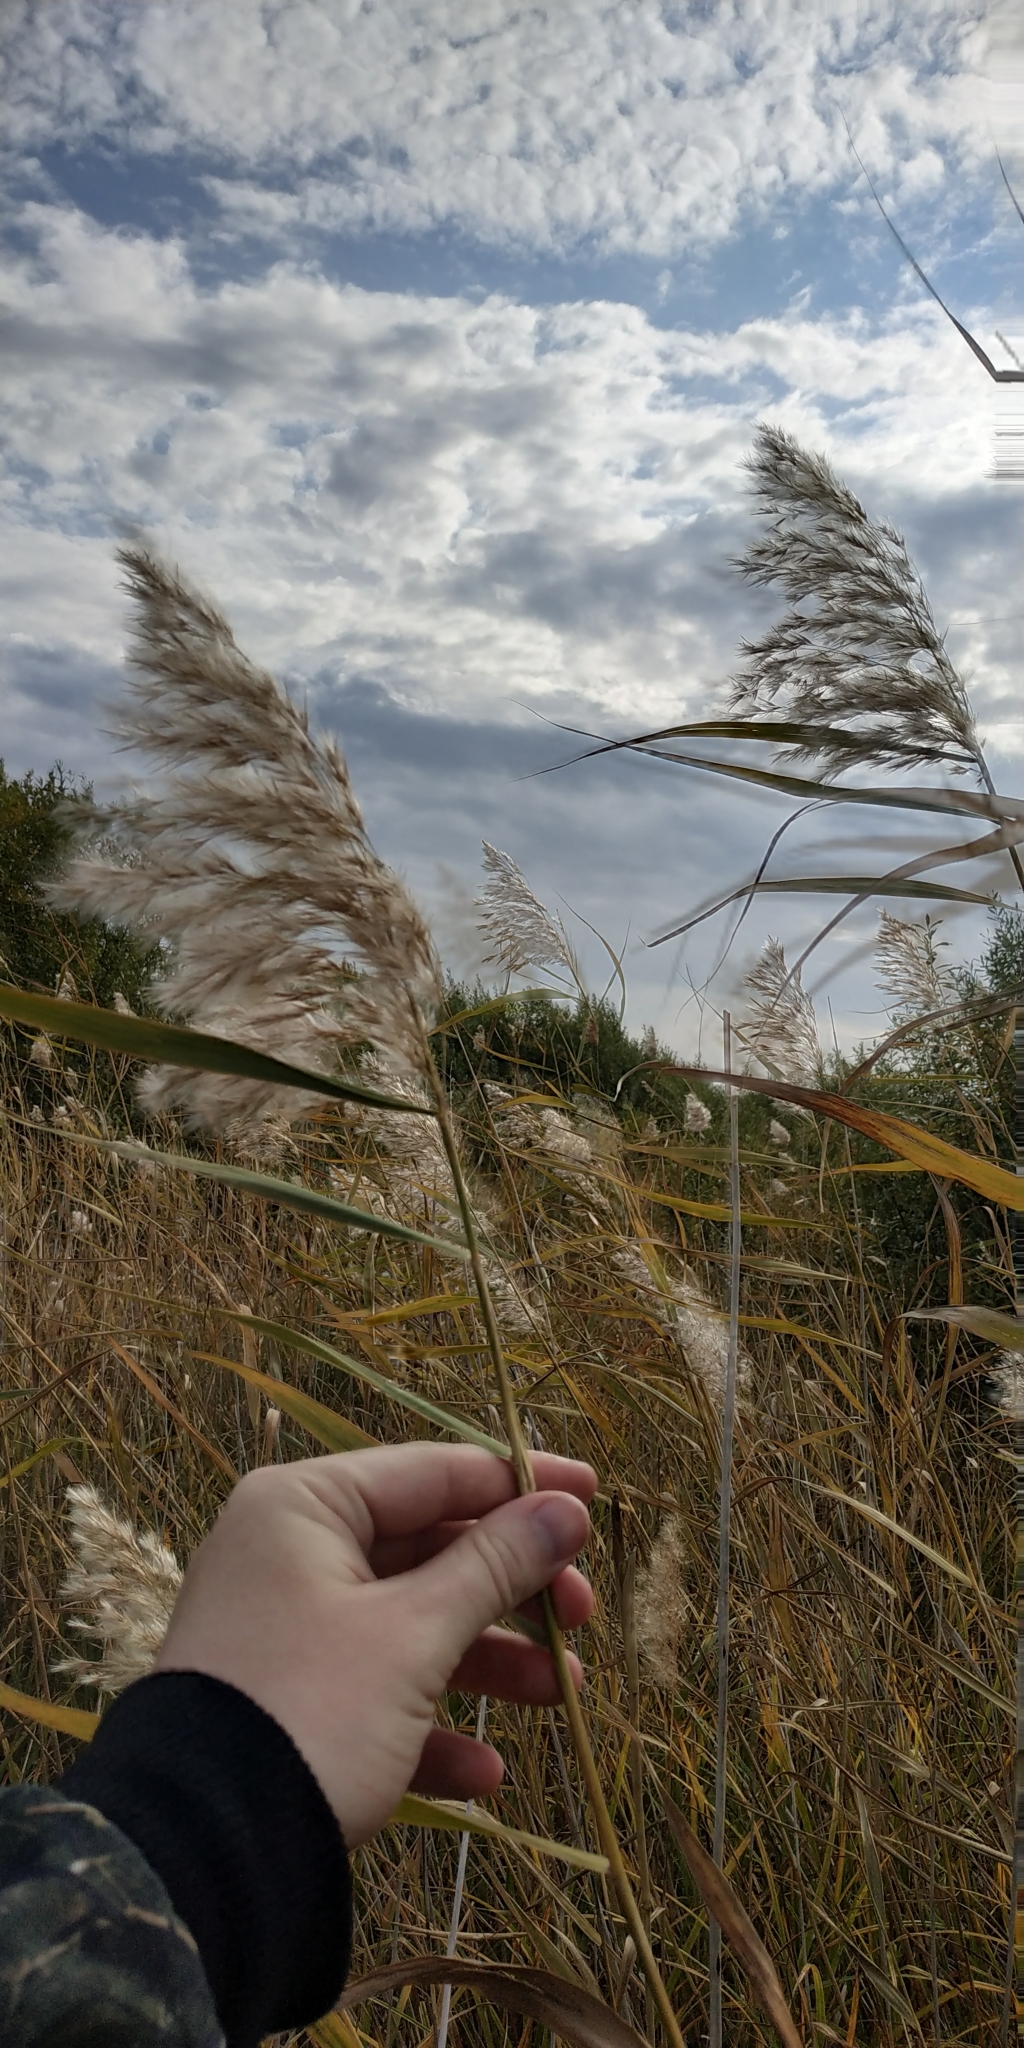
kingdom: Plantae
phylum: Tracheophyta
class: Liliopsida
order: Poales
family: Poaceae
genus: Phragmites
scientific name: Phragmites australis
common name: Common reed
